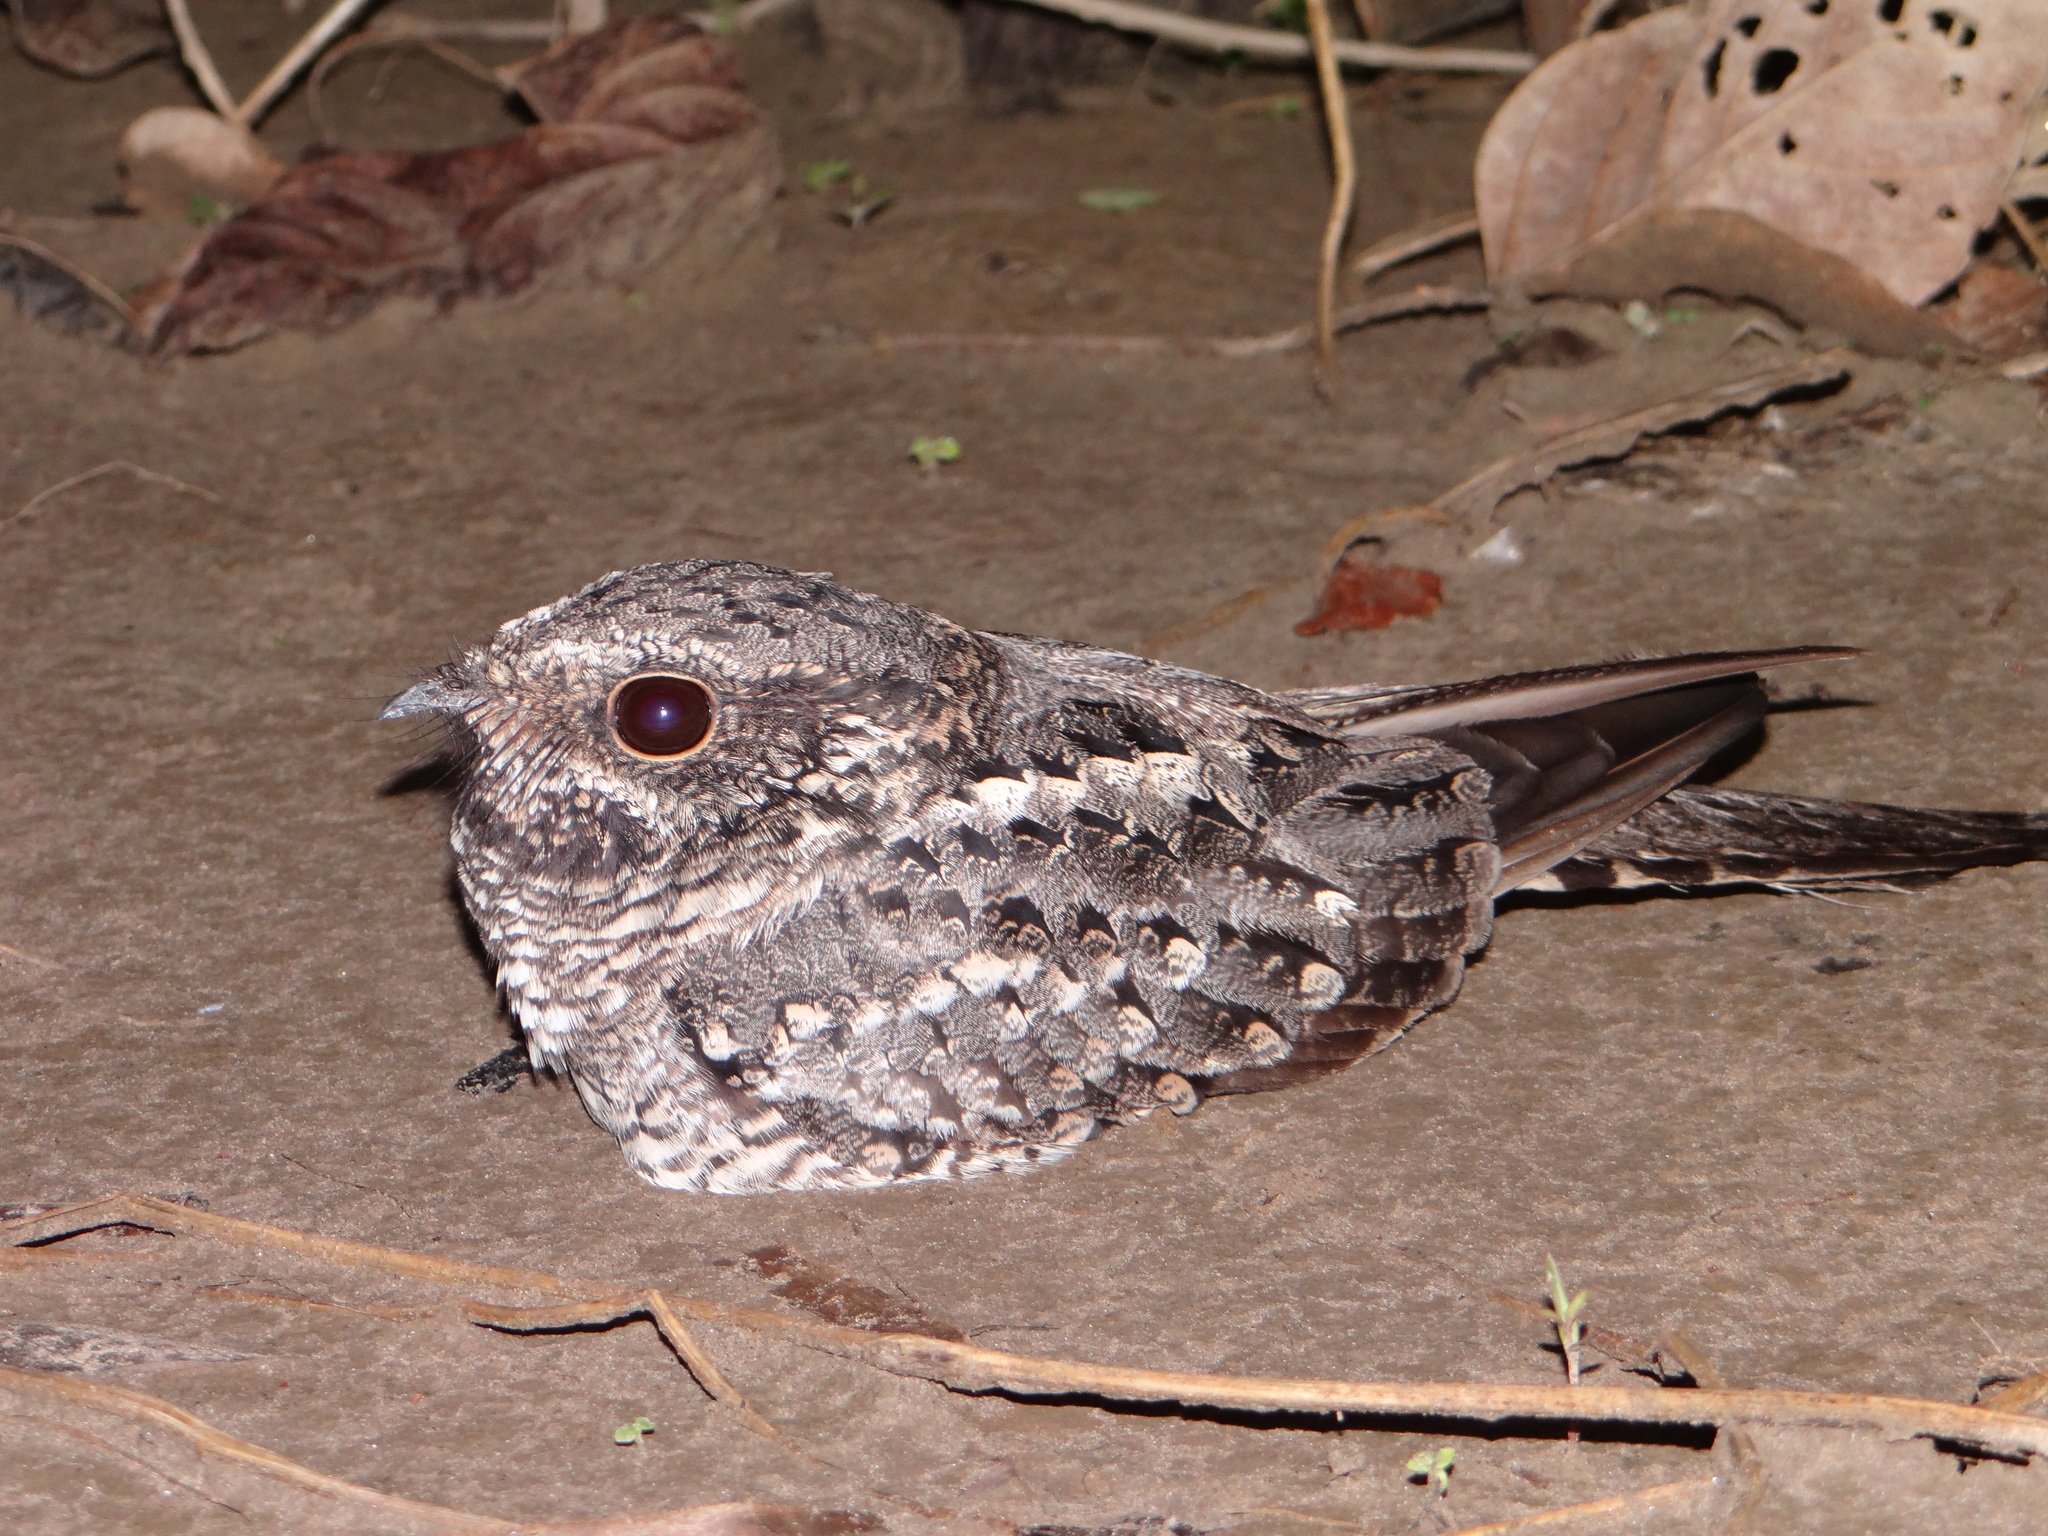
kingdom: Animalia
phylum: Chordata
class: Aves
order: Caprimulgiformes
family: Caprimulgidae
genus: Hydropsalis
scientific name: Hydropsalis climacocerca
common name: Ladder-tailed nightjar
